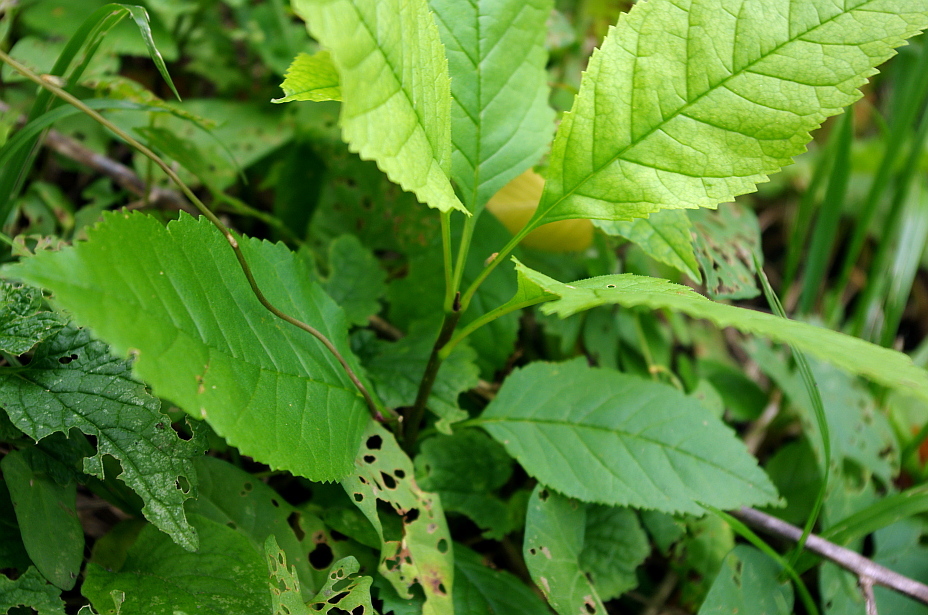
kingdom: Plantae
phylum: Tracheophyta
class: Magnoliopsida
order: Lamiales
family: Oleaceae
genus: Fraxinus
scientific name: Fraxinus pennsylvanica
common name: Green ash
